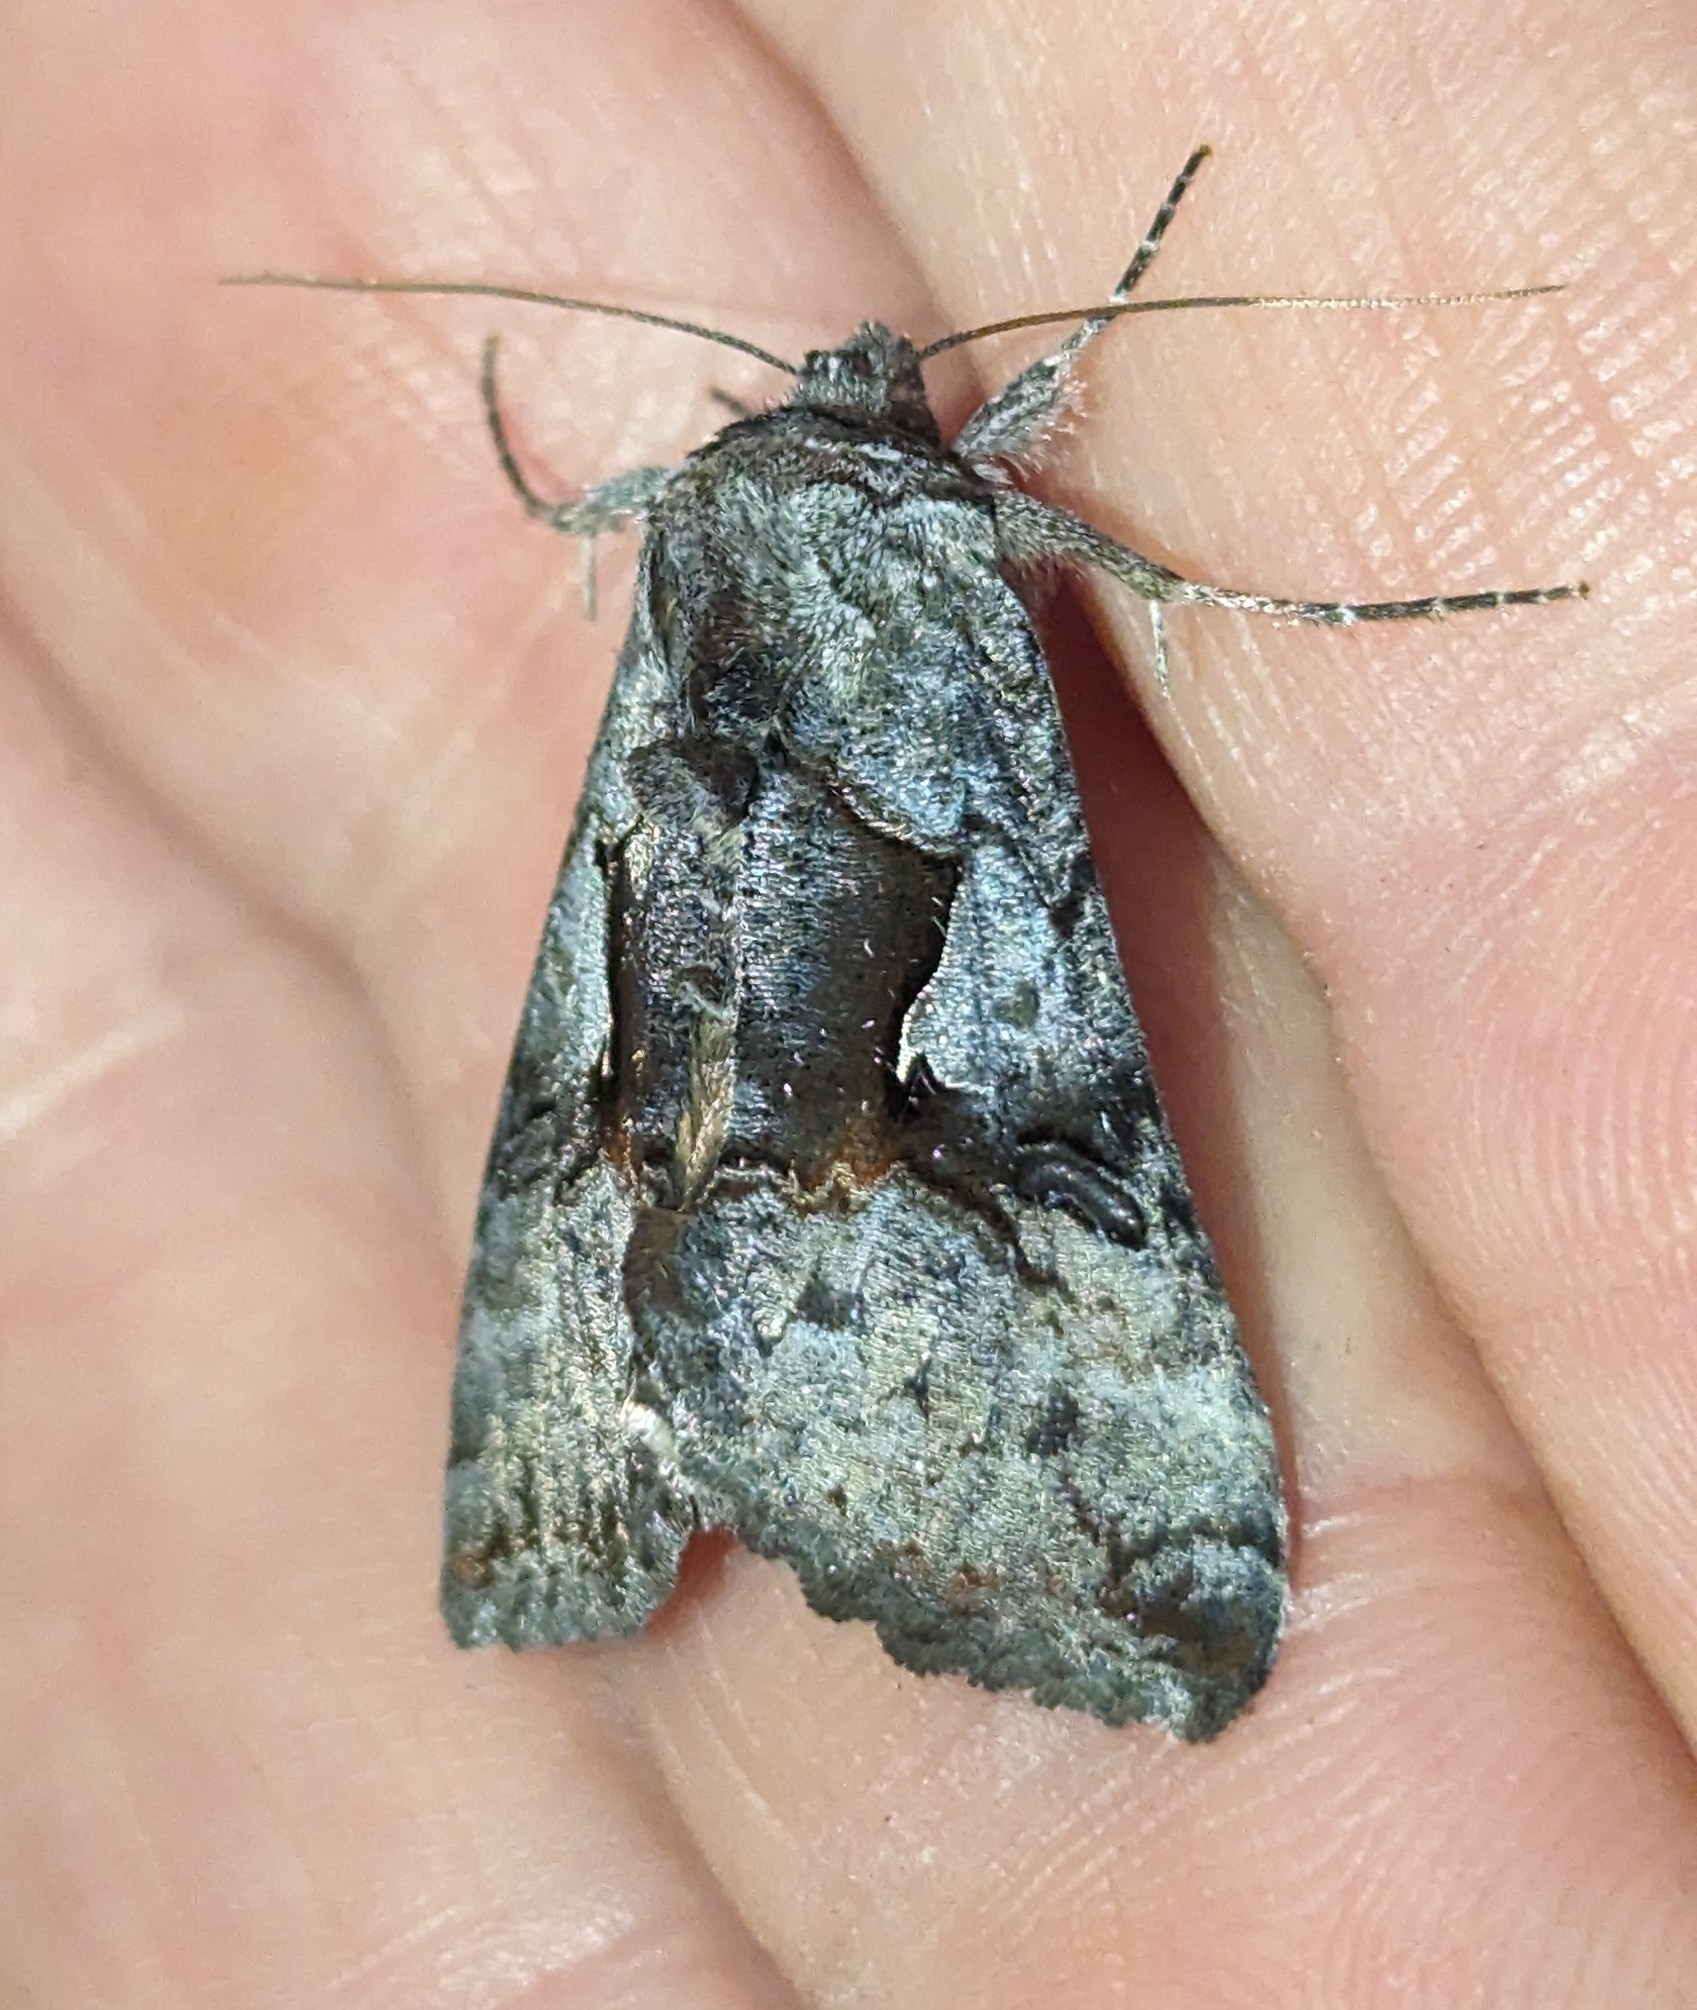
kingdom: Animalia
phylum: Arthropoda
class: Insecta
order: Lepidoptera
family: Noctuidae
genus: Syngrapha
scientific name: Syngrapha epigaea
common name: Epigaea looper moth
